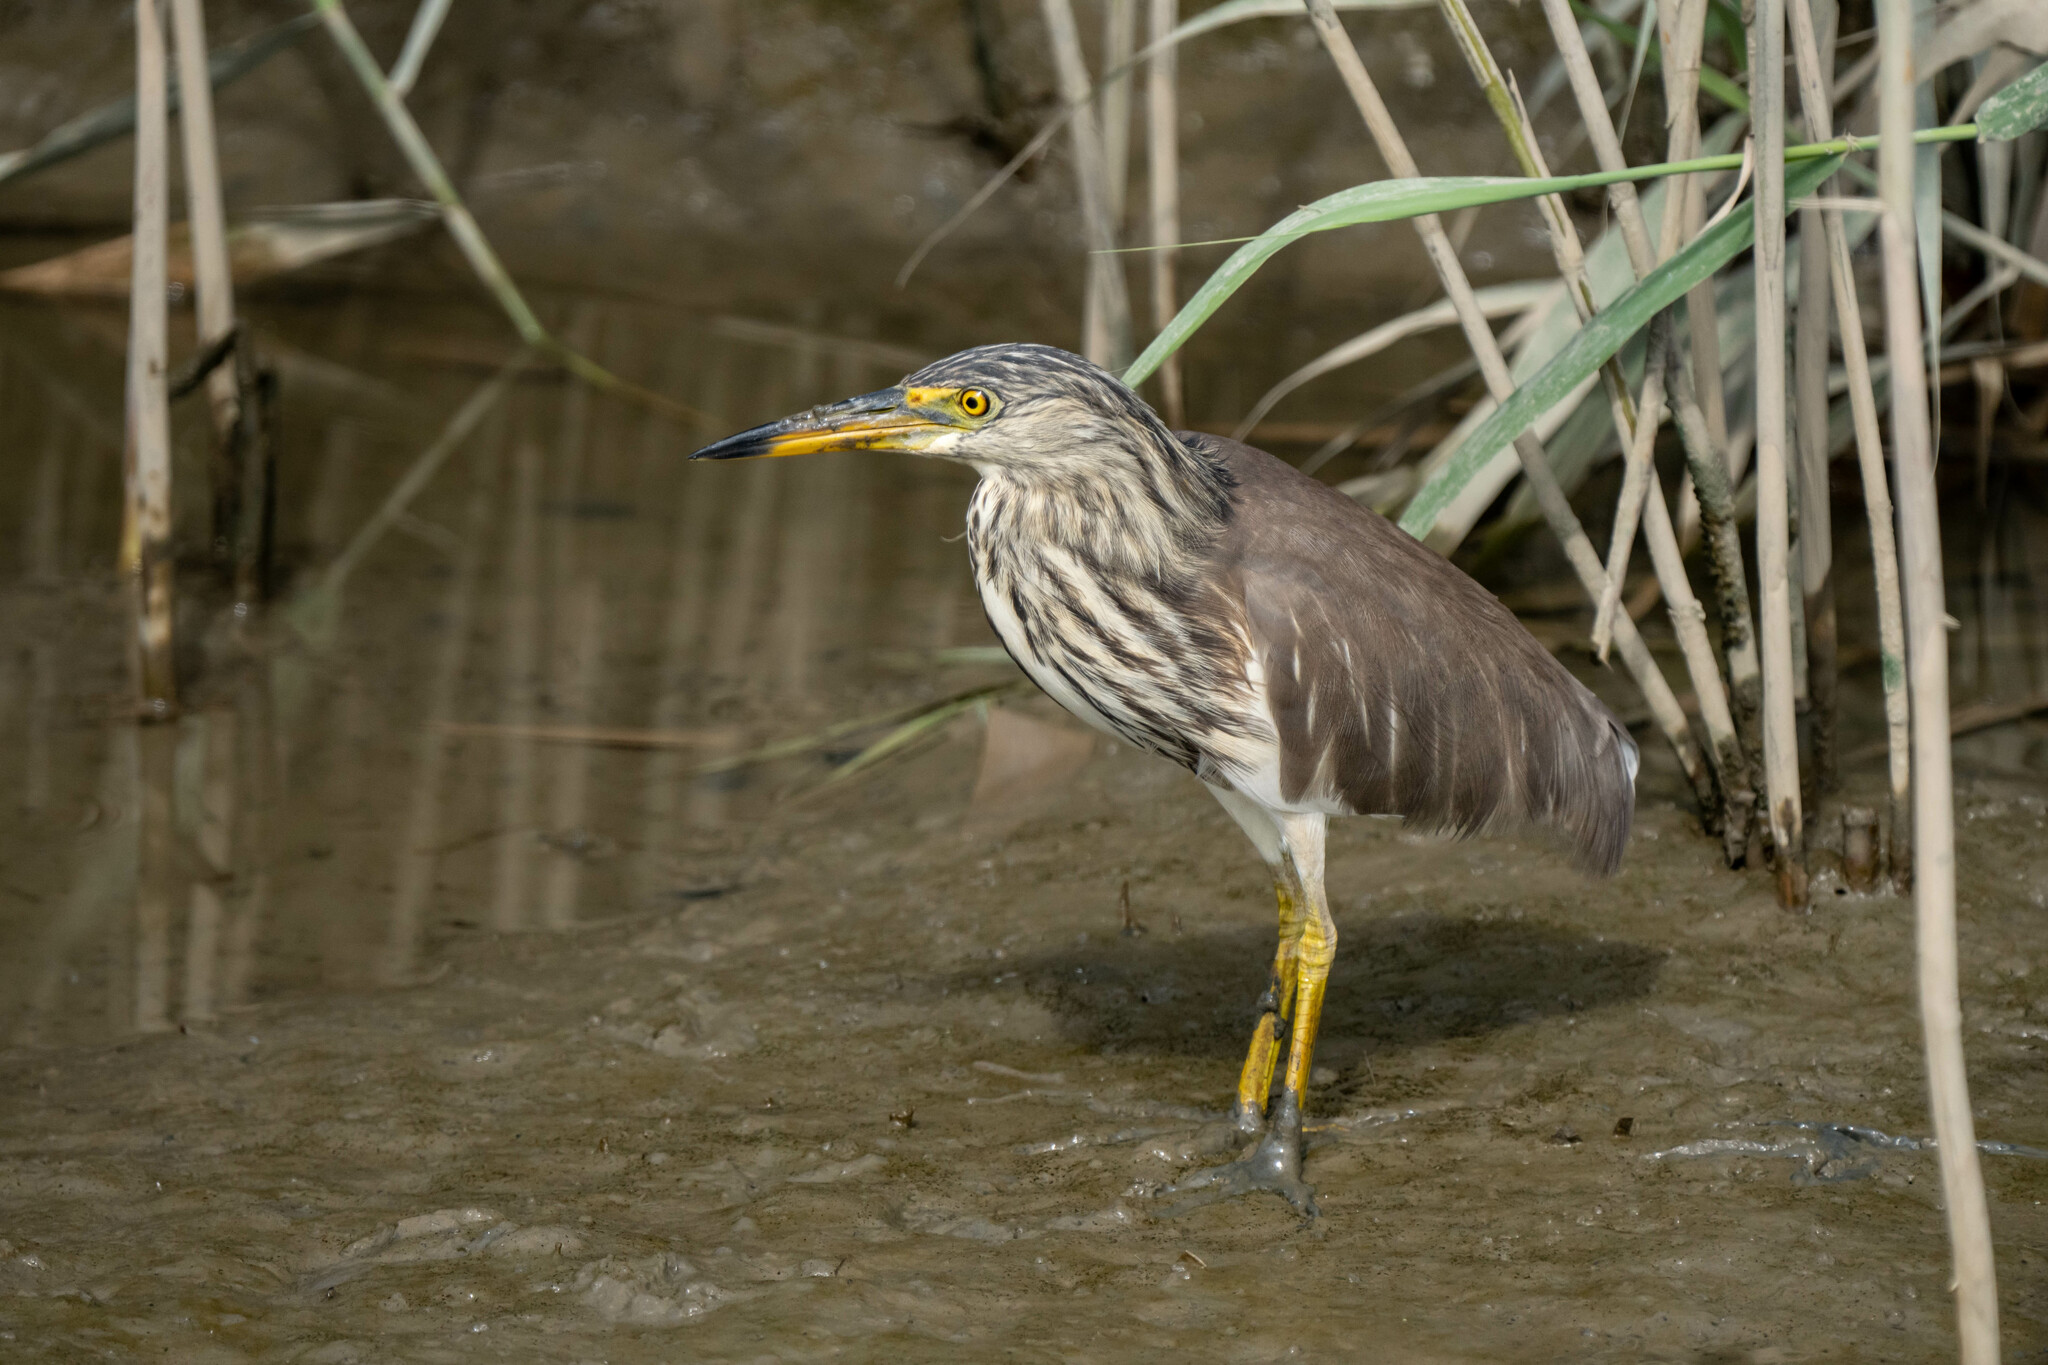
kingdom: Animalia
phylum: Chordata
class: Aves
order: Pelecaniformes
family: Ardeidae
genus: Ardeola
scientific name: Ardeola bacchus
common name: Chinese pond heron
